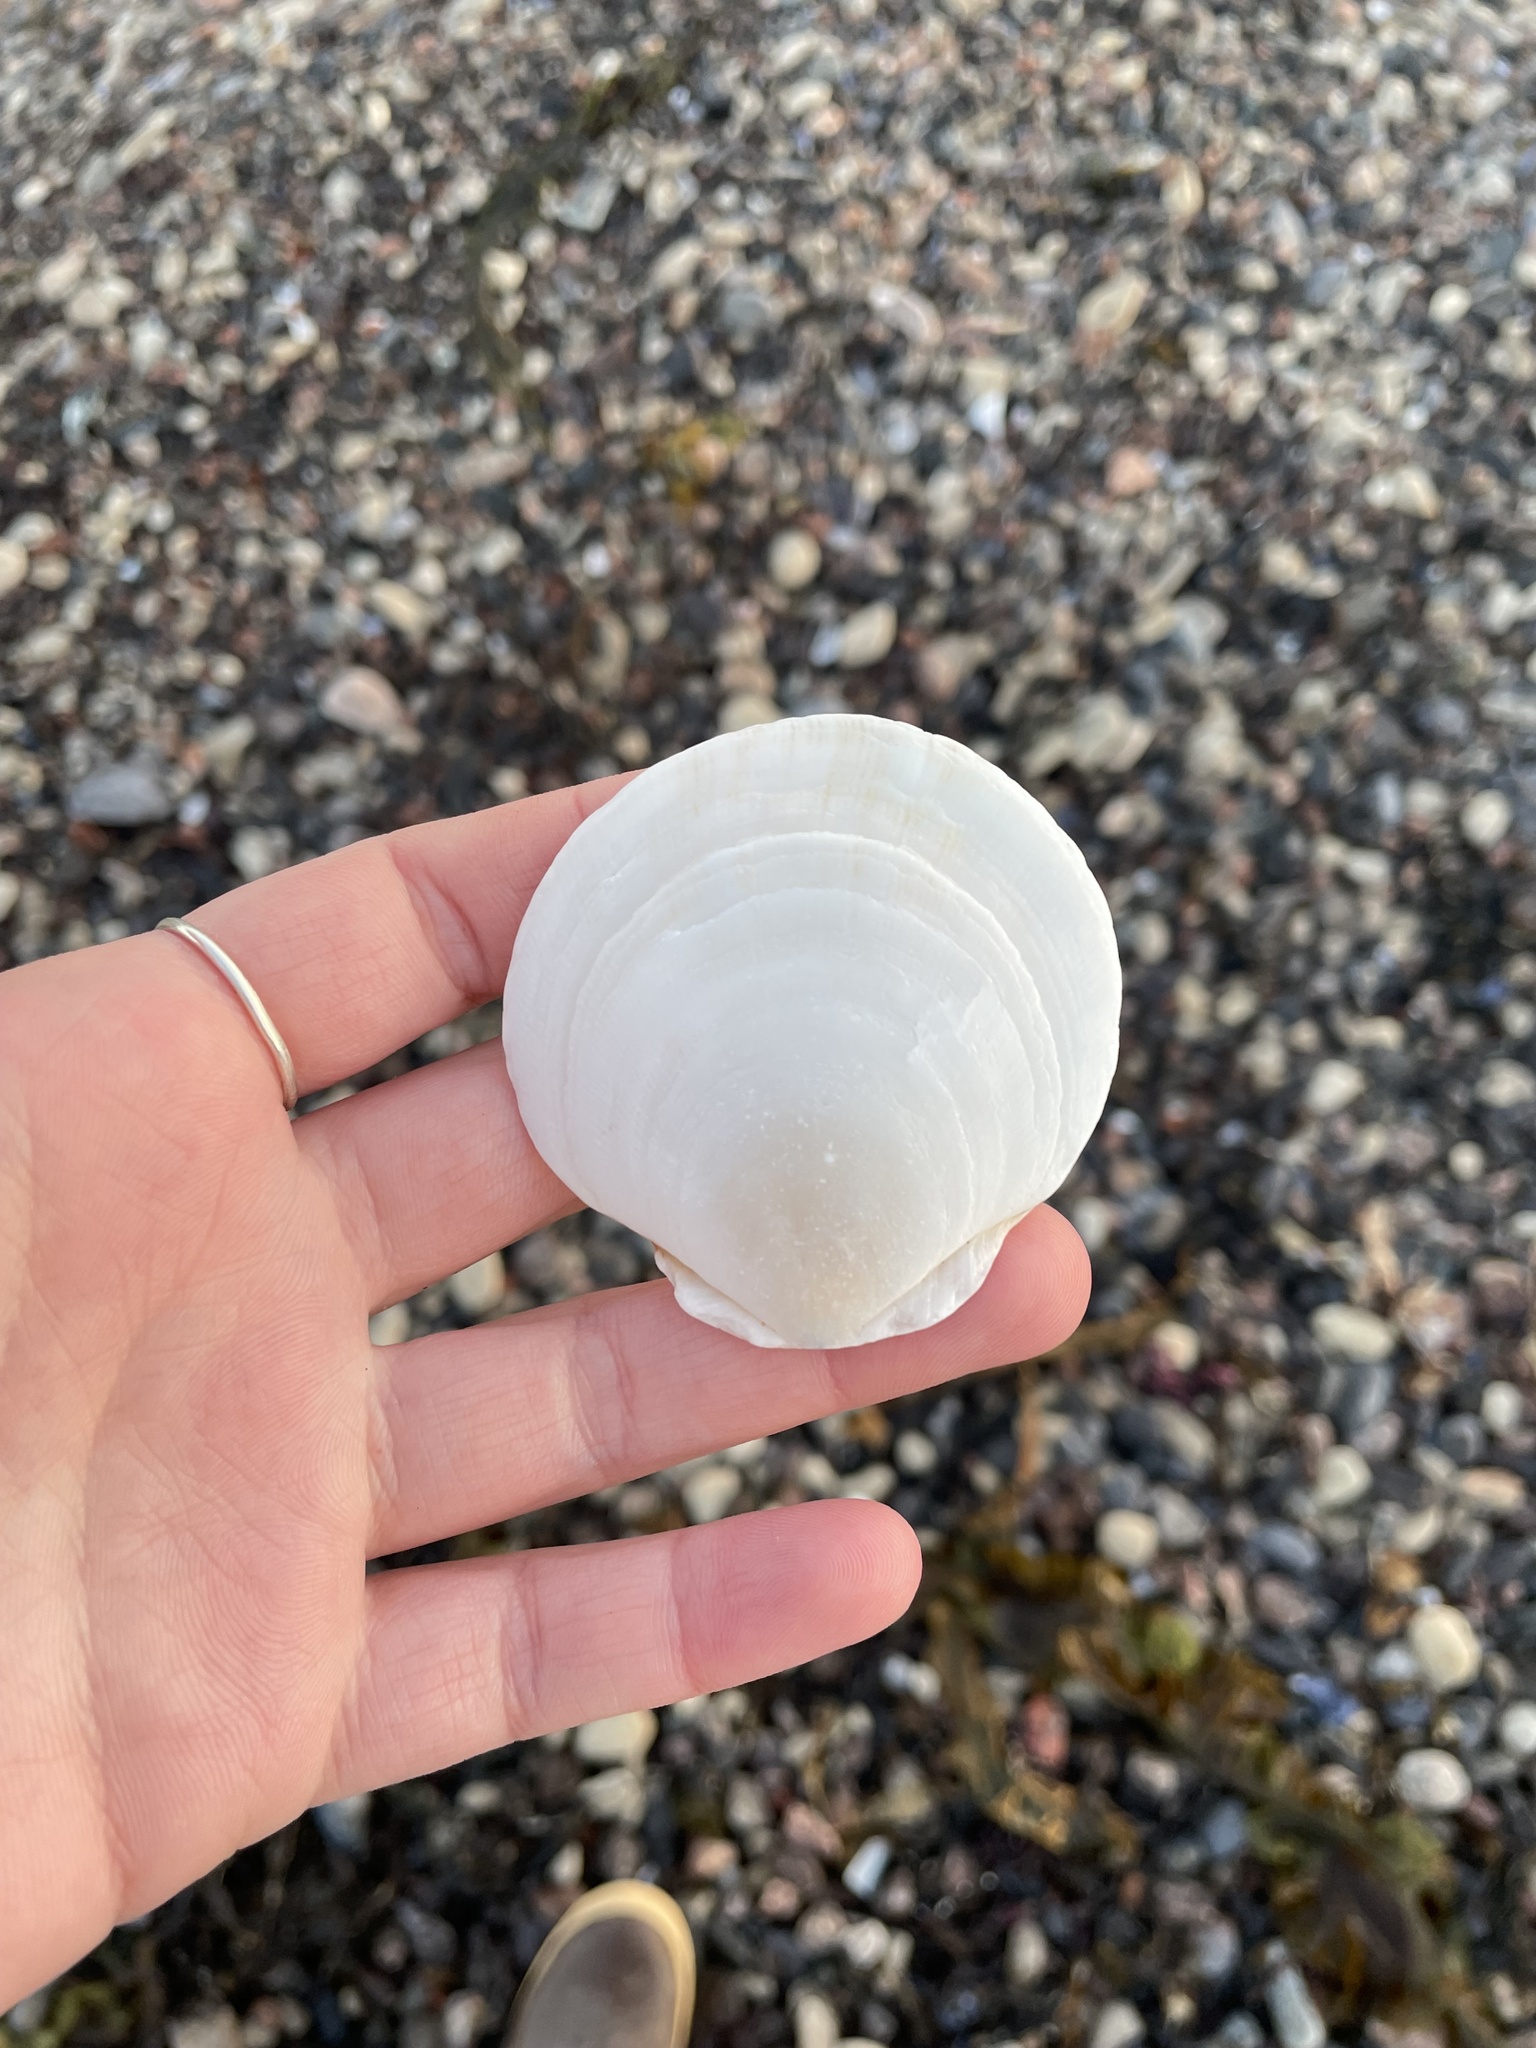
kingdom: Animalia
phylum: Mollusca
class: Bivalvia
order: Pectinida
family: Pectinidae
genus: Placopecten
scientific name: Placopecten magellanicus
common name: American sea scallop
